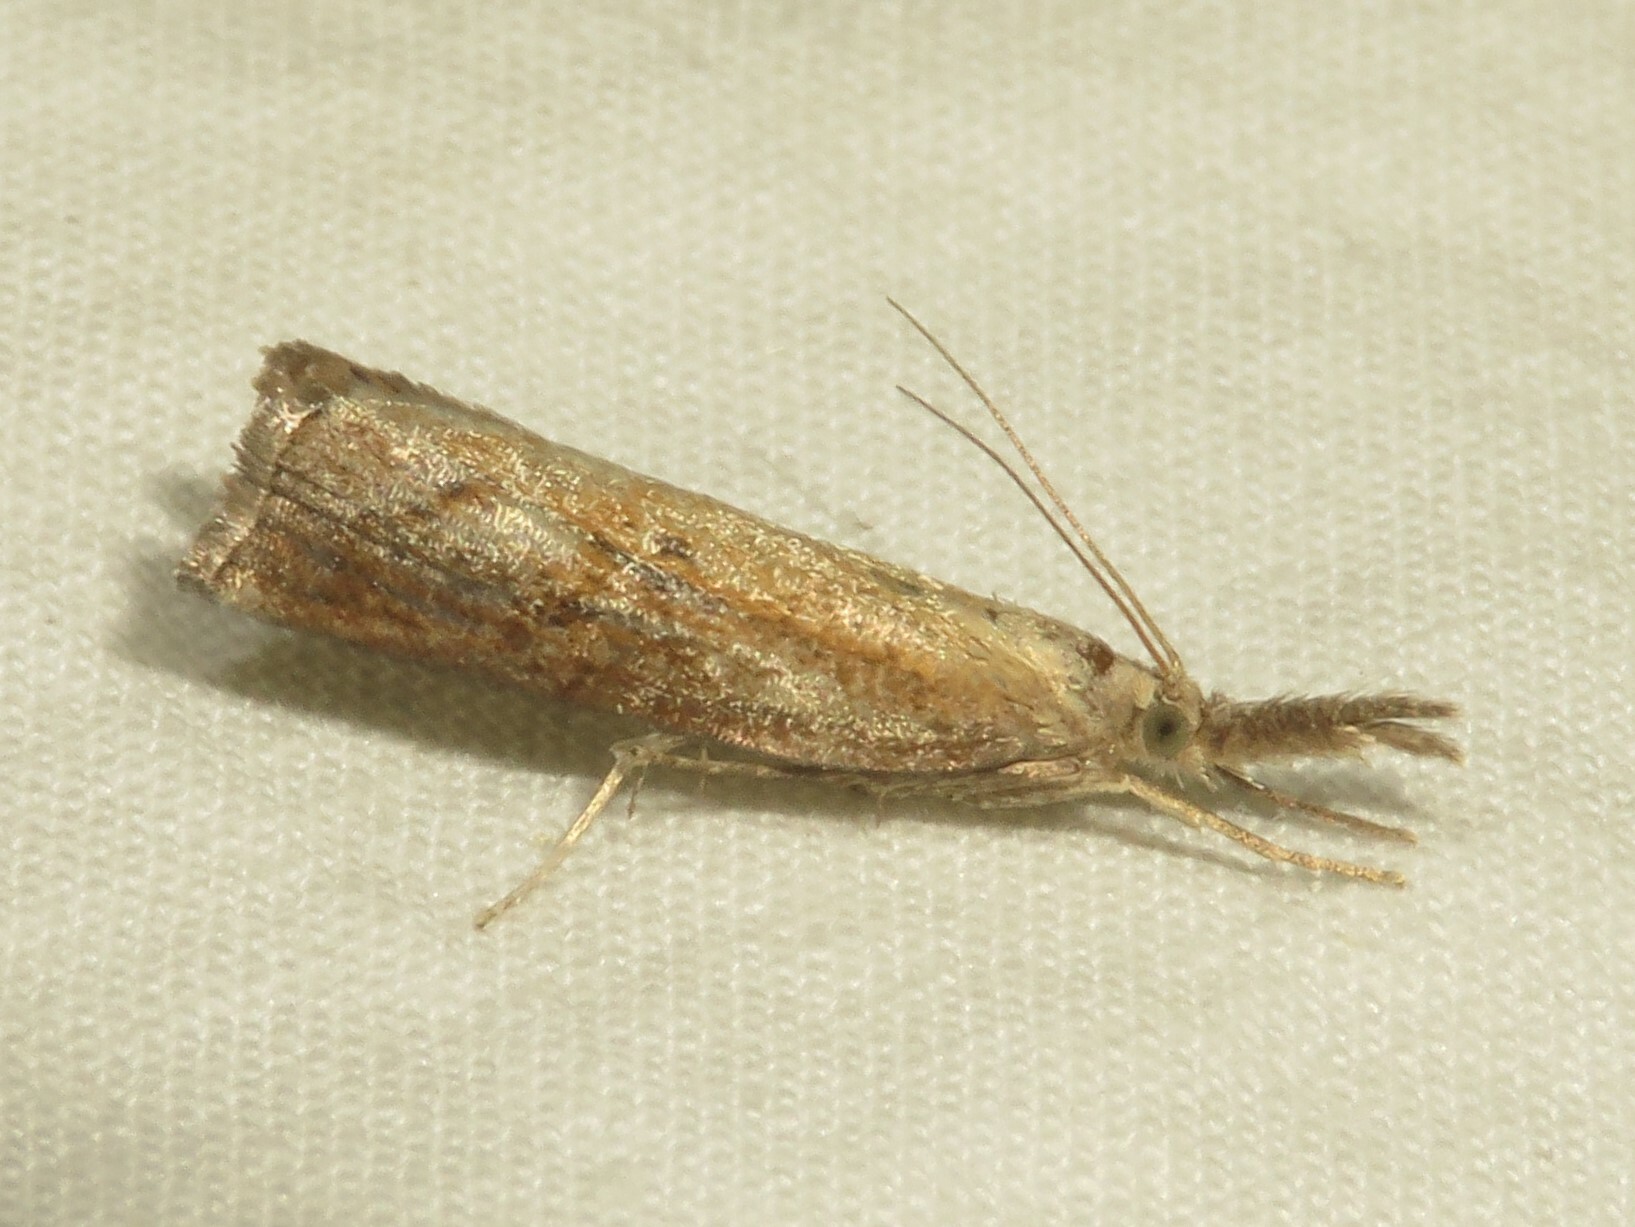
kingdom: Animalia
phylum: Arthropoda
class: Insecta
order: Lepidoptera
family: Crambidae
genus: Neodactria
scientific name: Neodactria luteolellus
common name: Mottled grass-veneer
